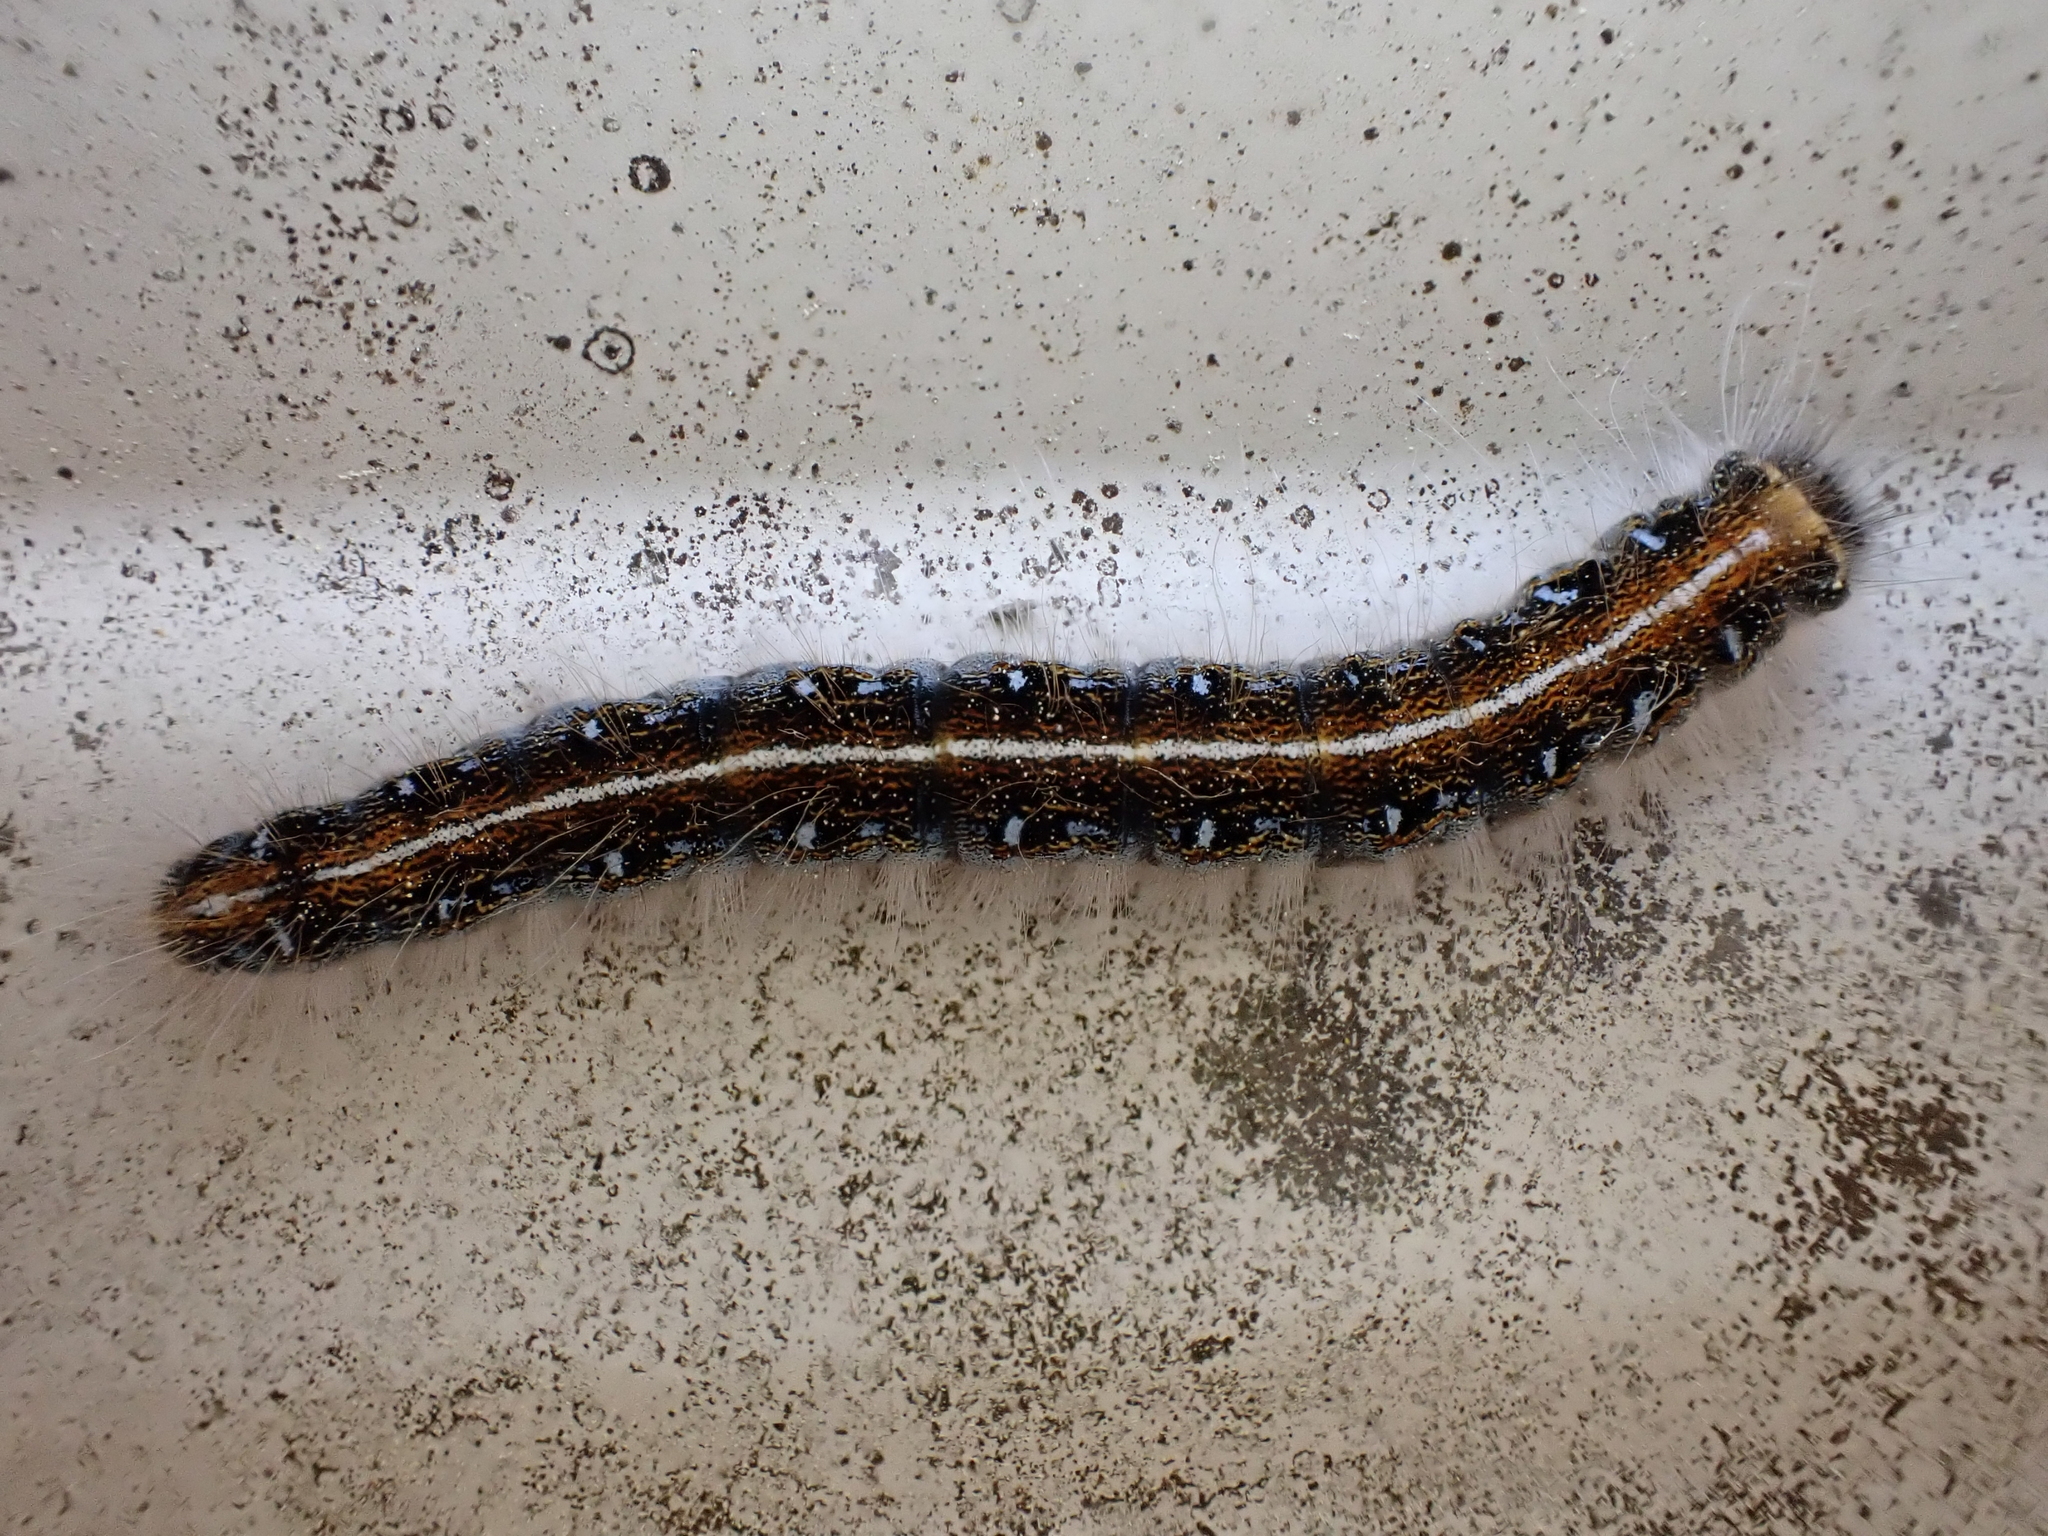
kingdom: Animalia
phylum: Arthropoda
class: Insecta
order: Lepidoptera
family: Lasiocampidae
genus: Malacosoma
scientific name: Malacosoma americana
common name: Eastern tent caterpillar moth
